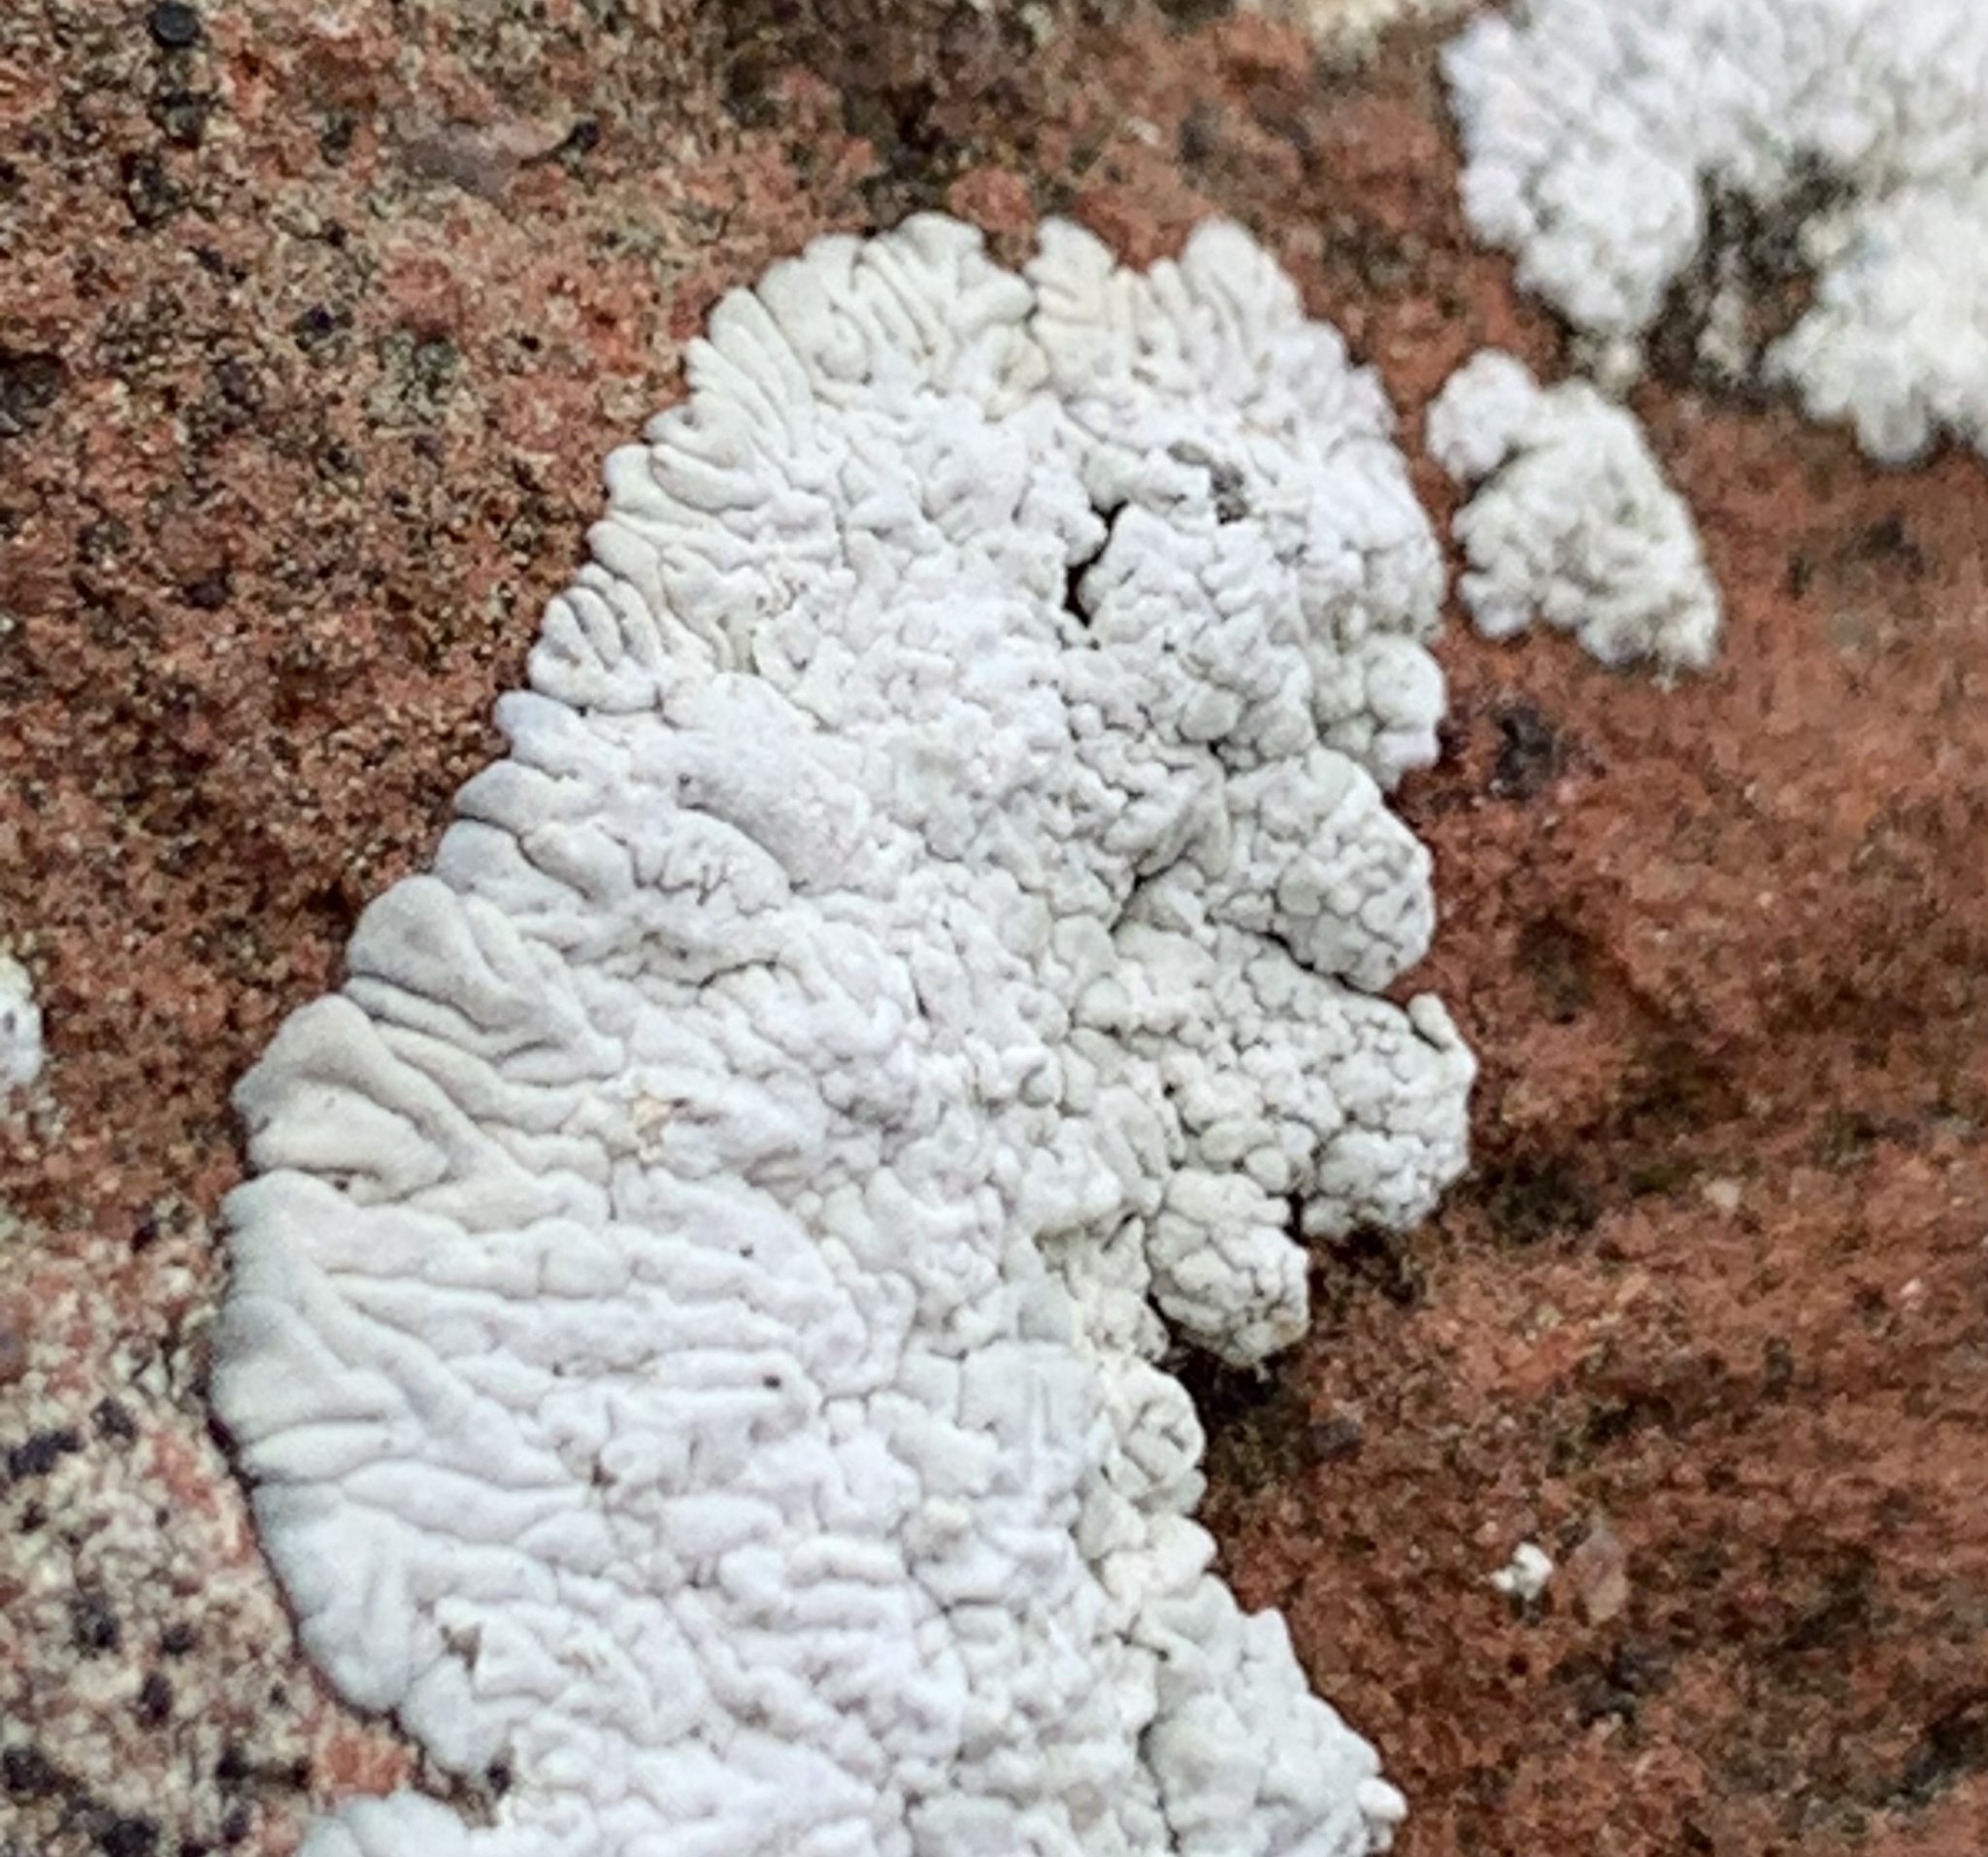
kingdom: Fungi
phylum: Ascomycota
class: Lecanoromycetes
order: Caliciales
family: Caliciaceae
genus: Diploicia
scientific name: Diploicia canescens
